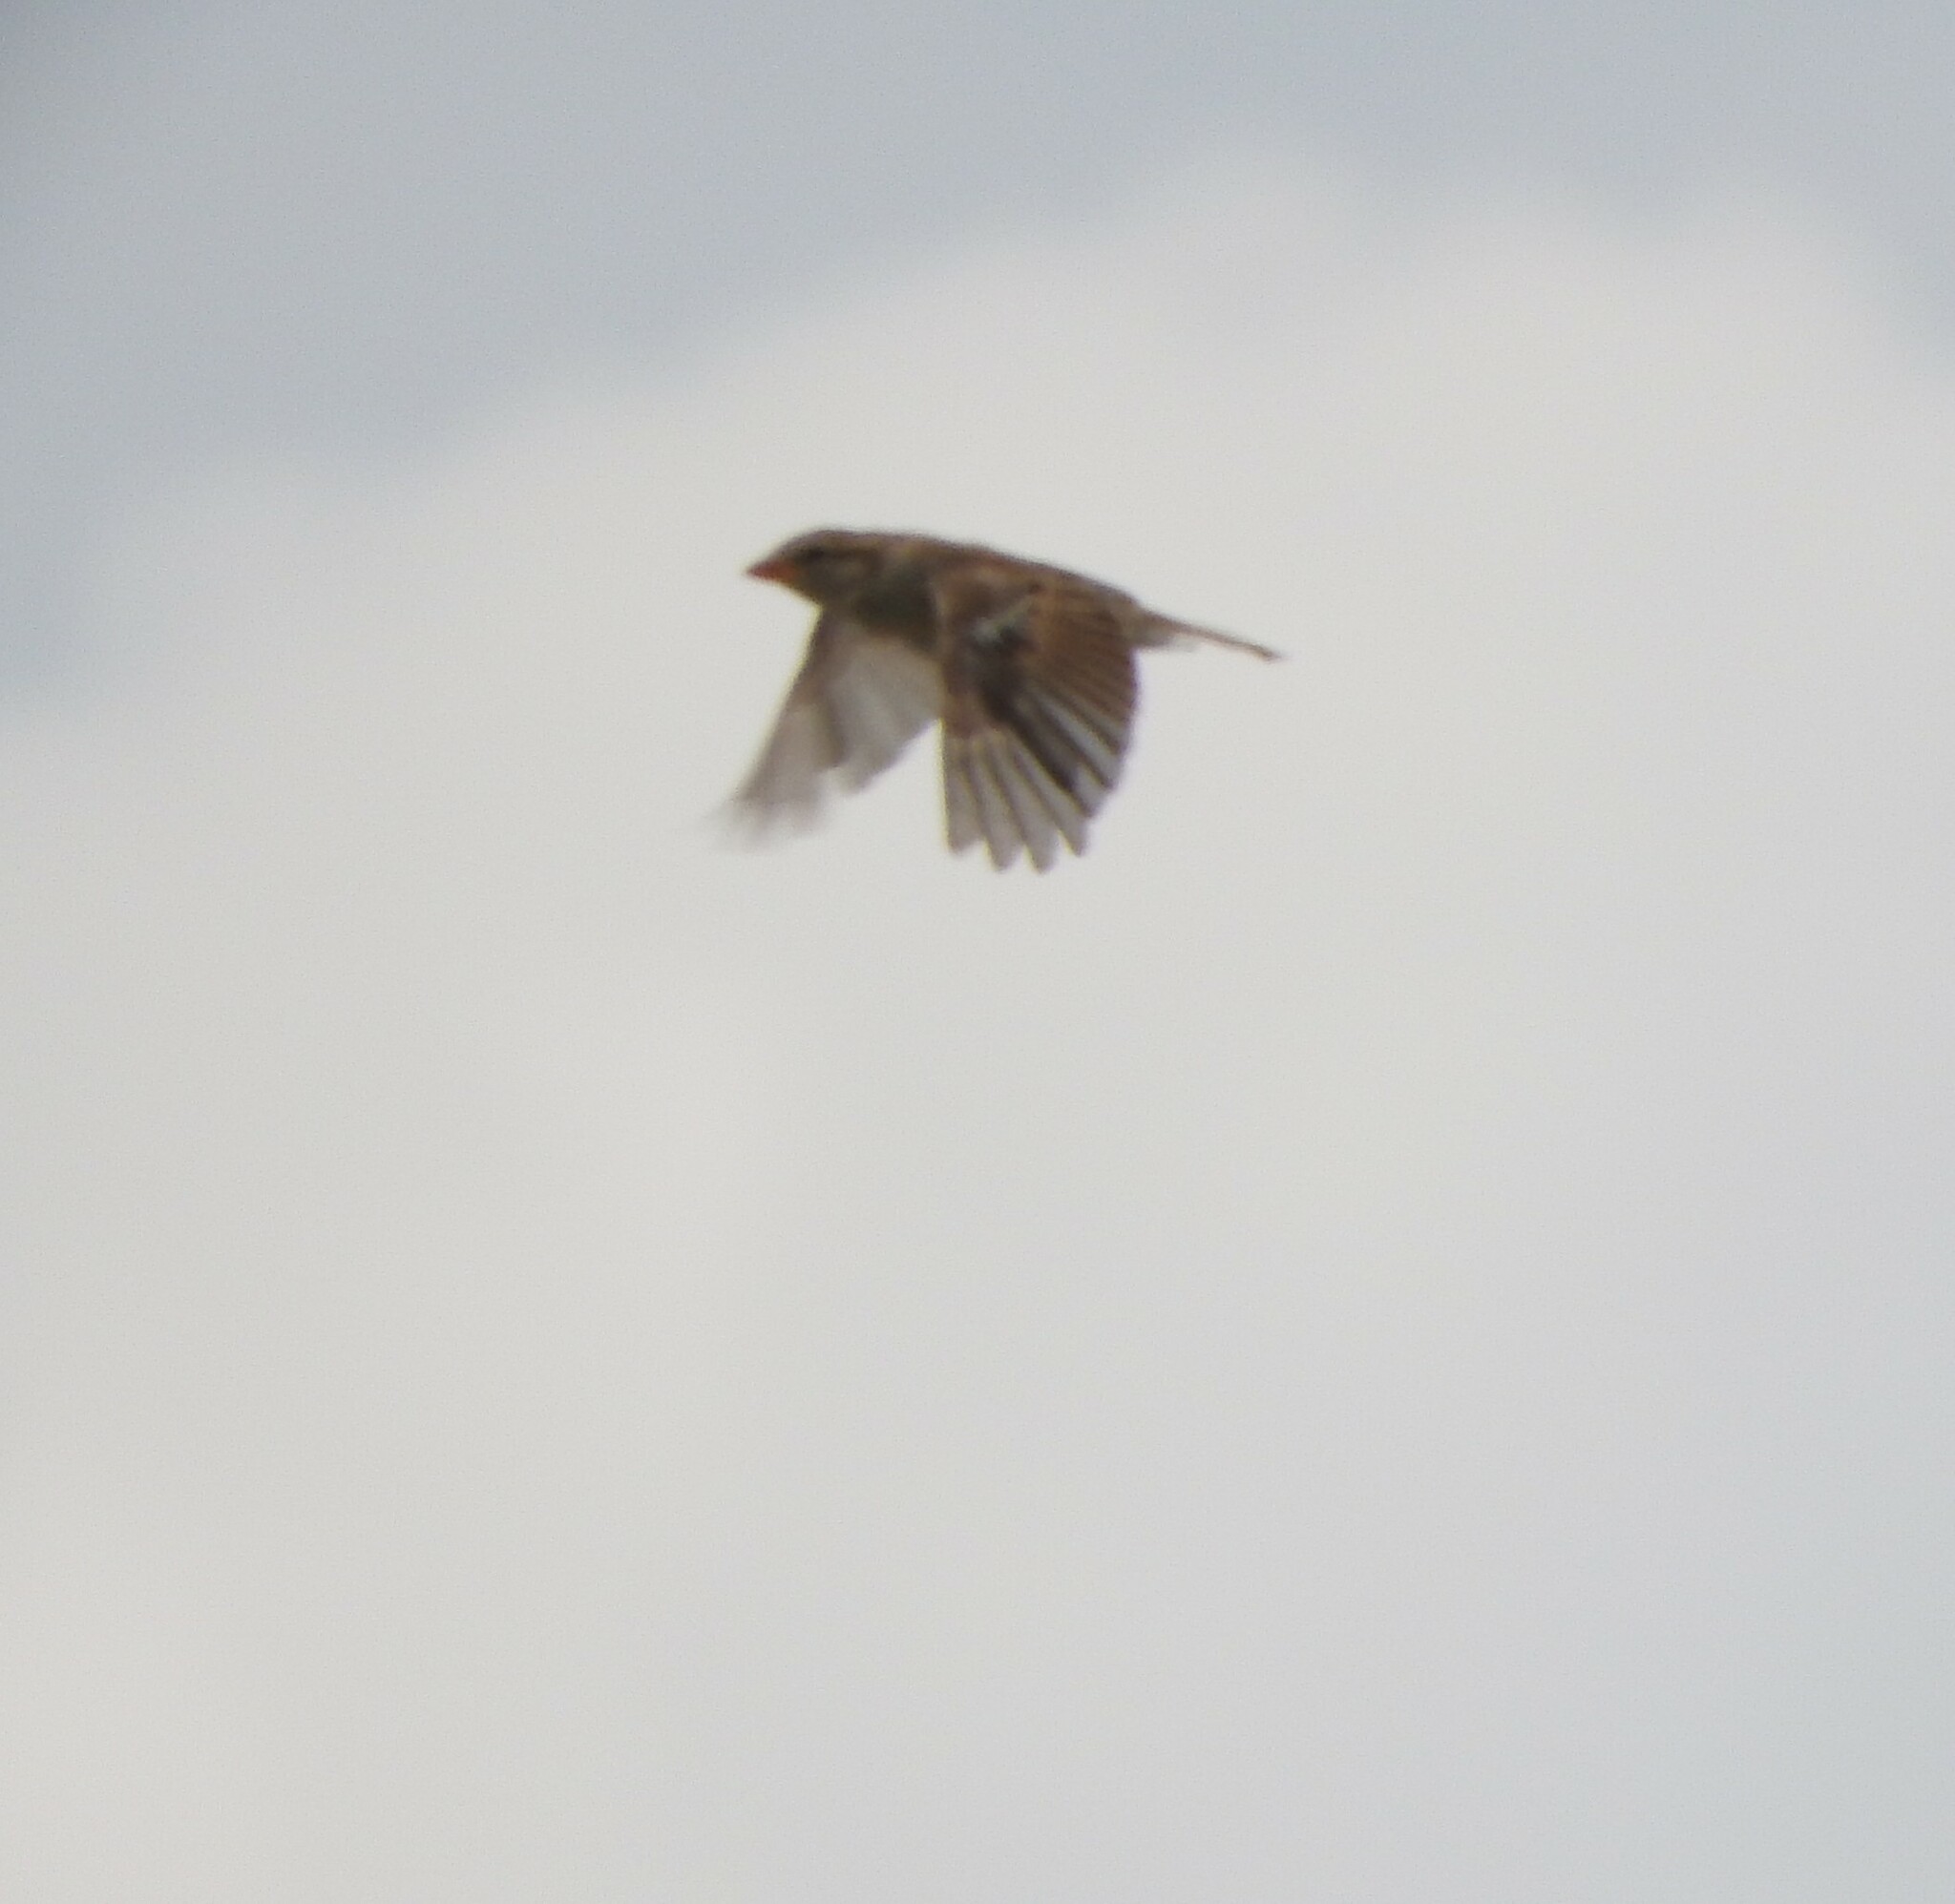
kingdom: Animalia
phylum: Chordata
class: Aves
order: Passeriformes
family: Passeridae
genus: Passer
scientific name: Passer domesticus
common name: House sparrow
